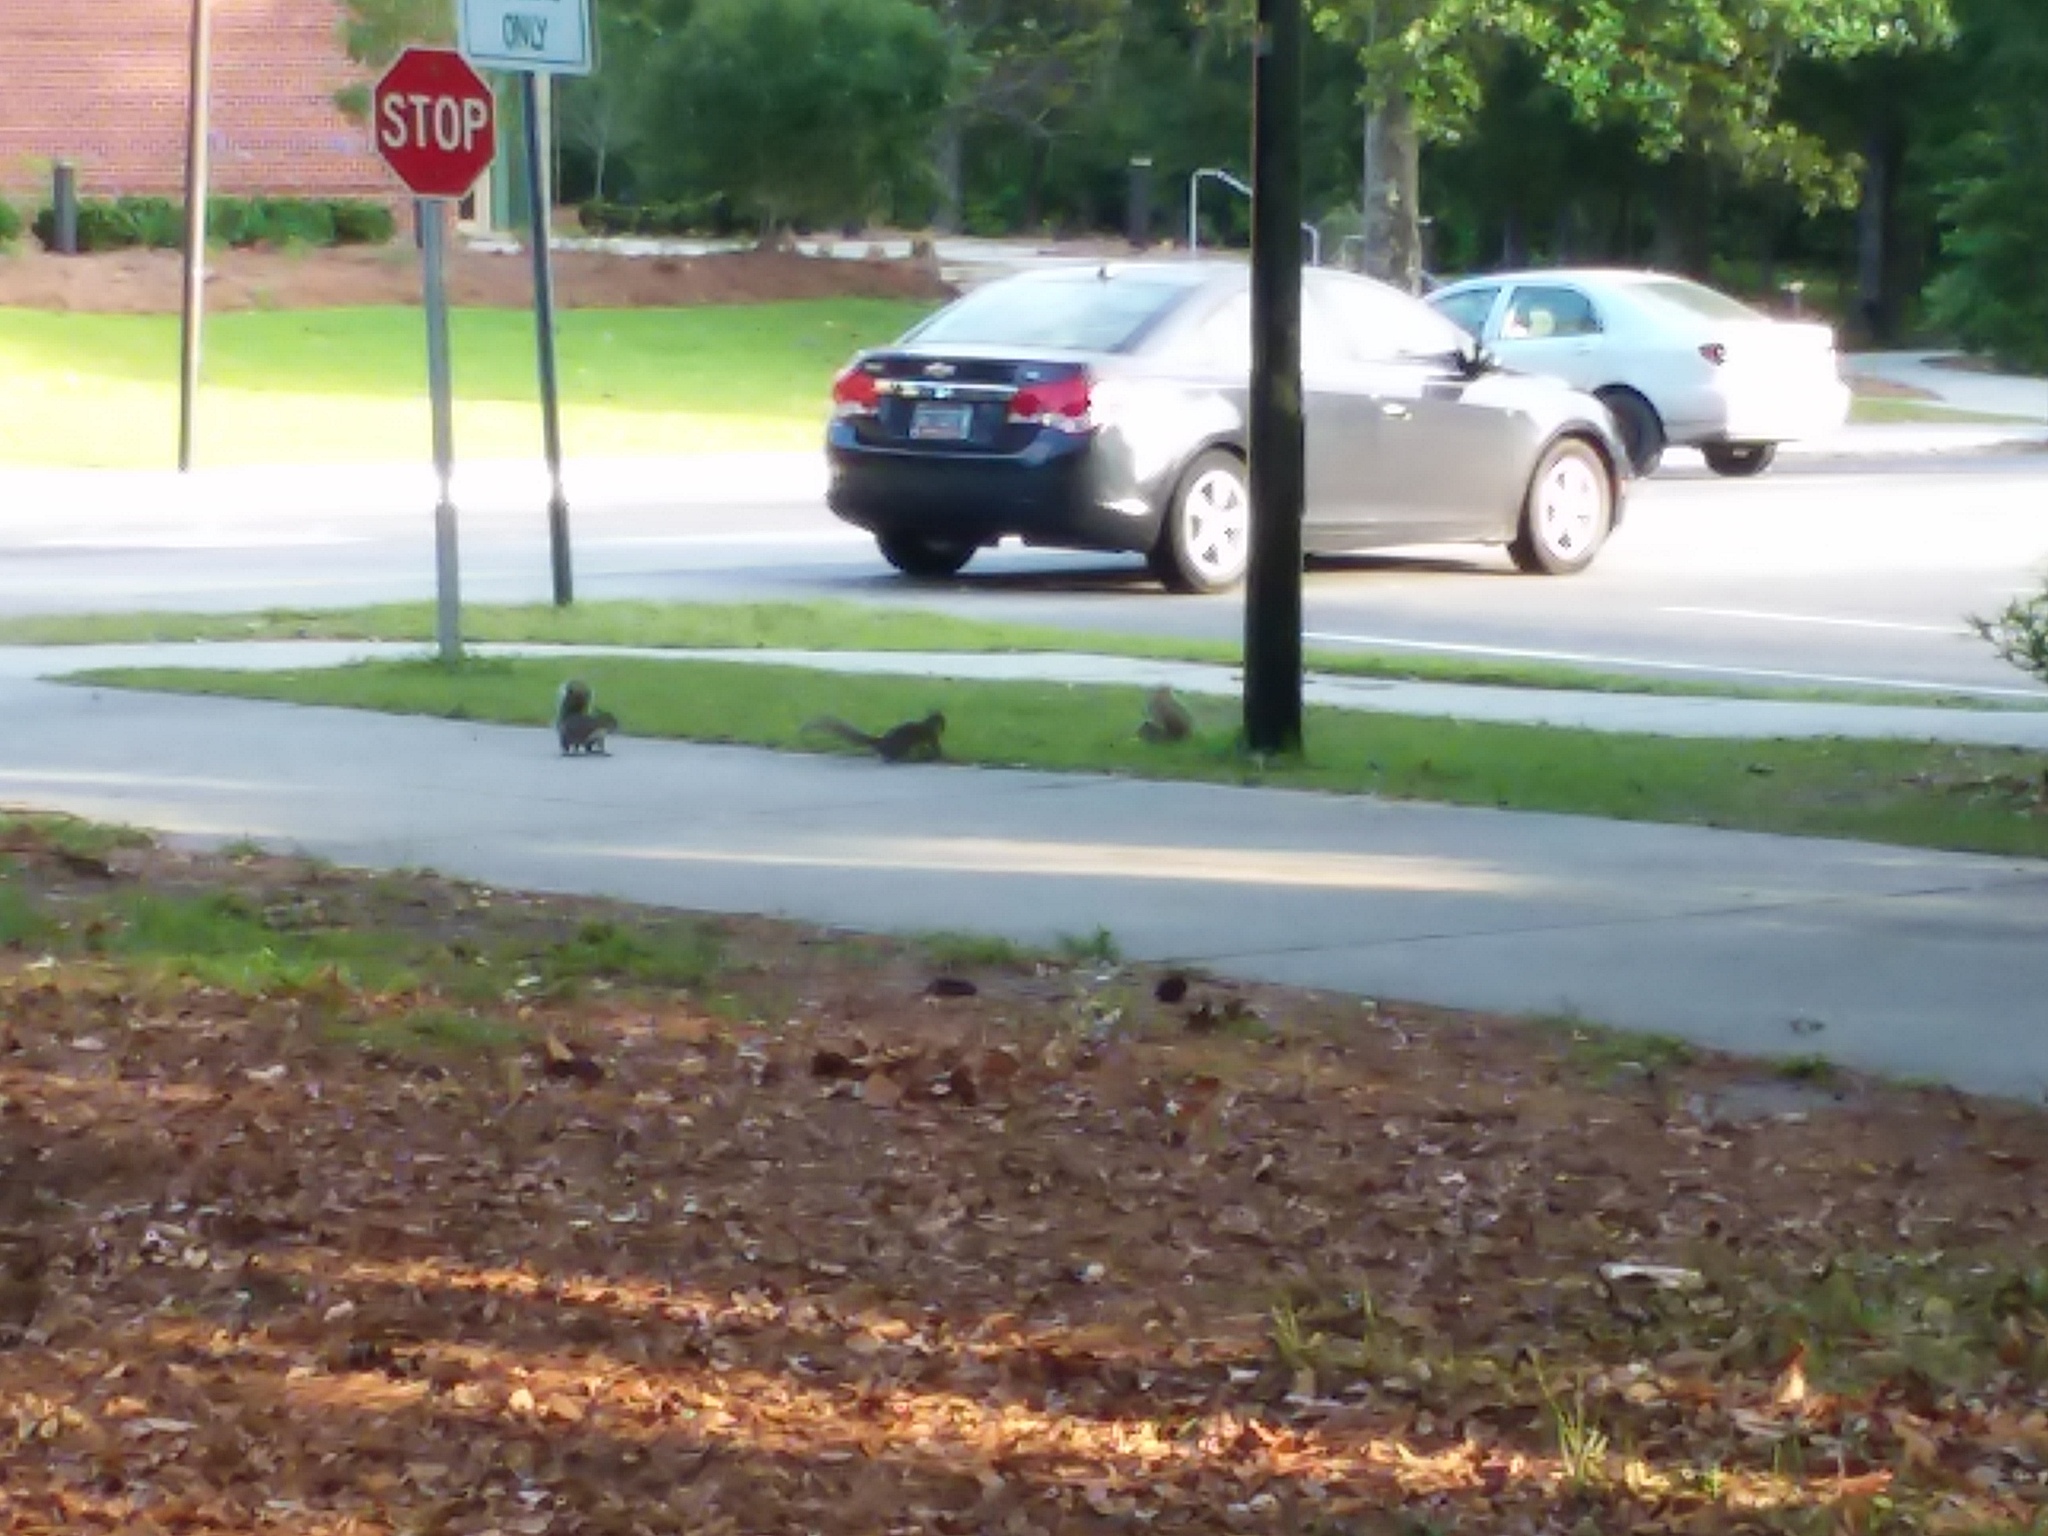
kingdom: Animalia
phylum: Chordata
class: Mammalia
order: Rodentia
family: Sciuridae
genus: Sciurus
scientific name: Sciurus carolinensis
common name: Eastern gray squirrel
